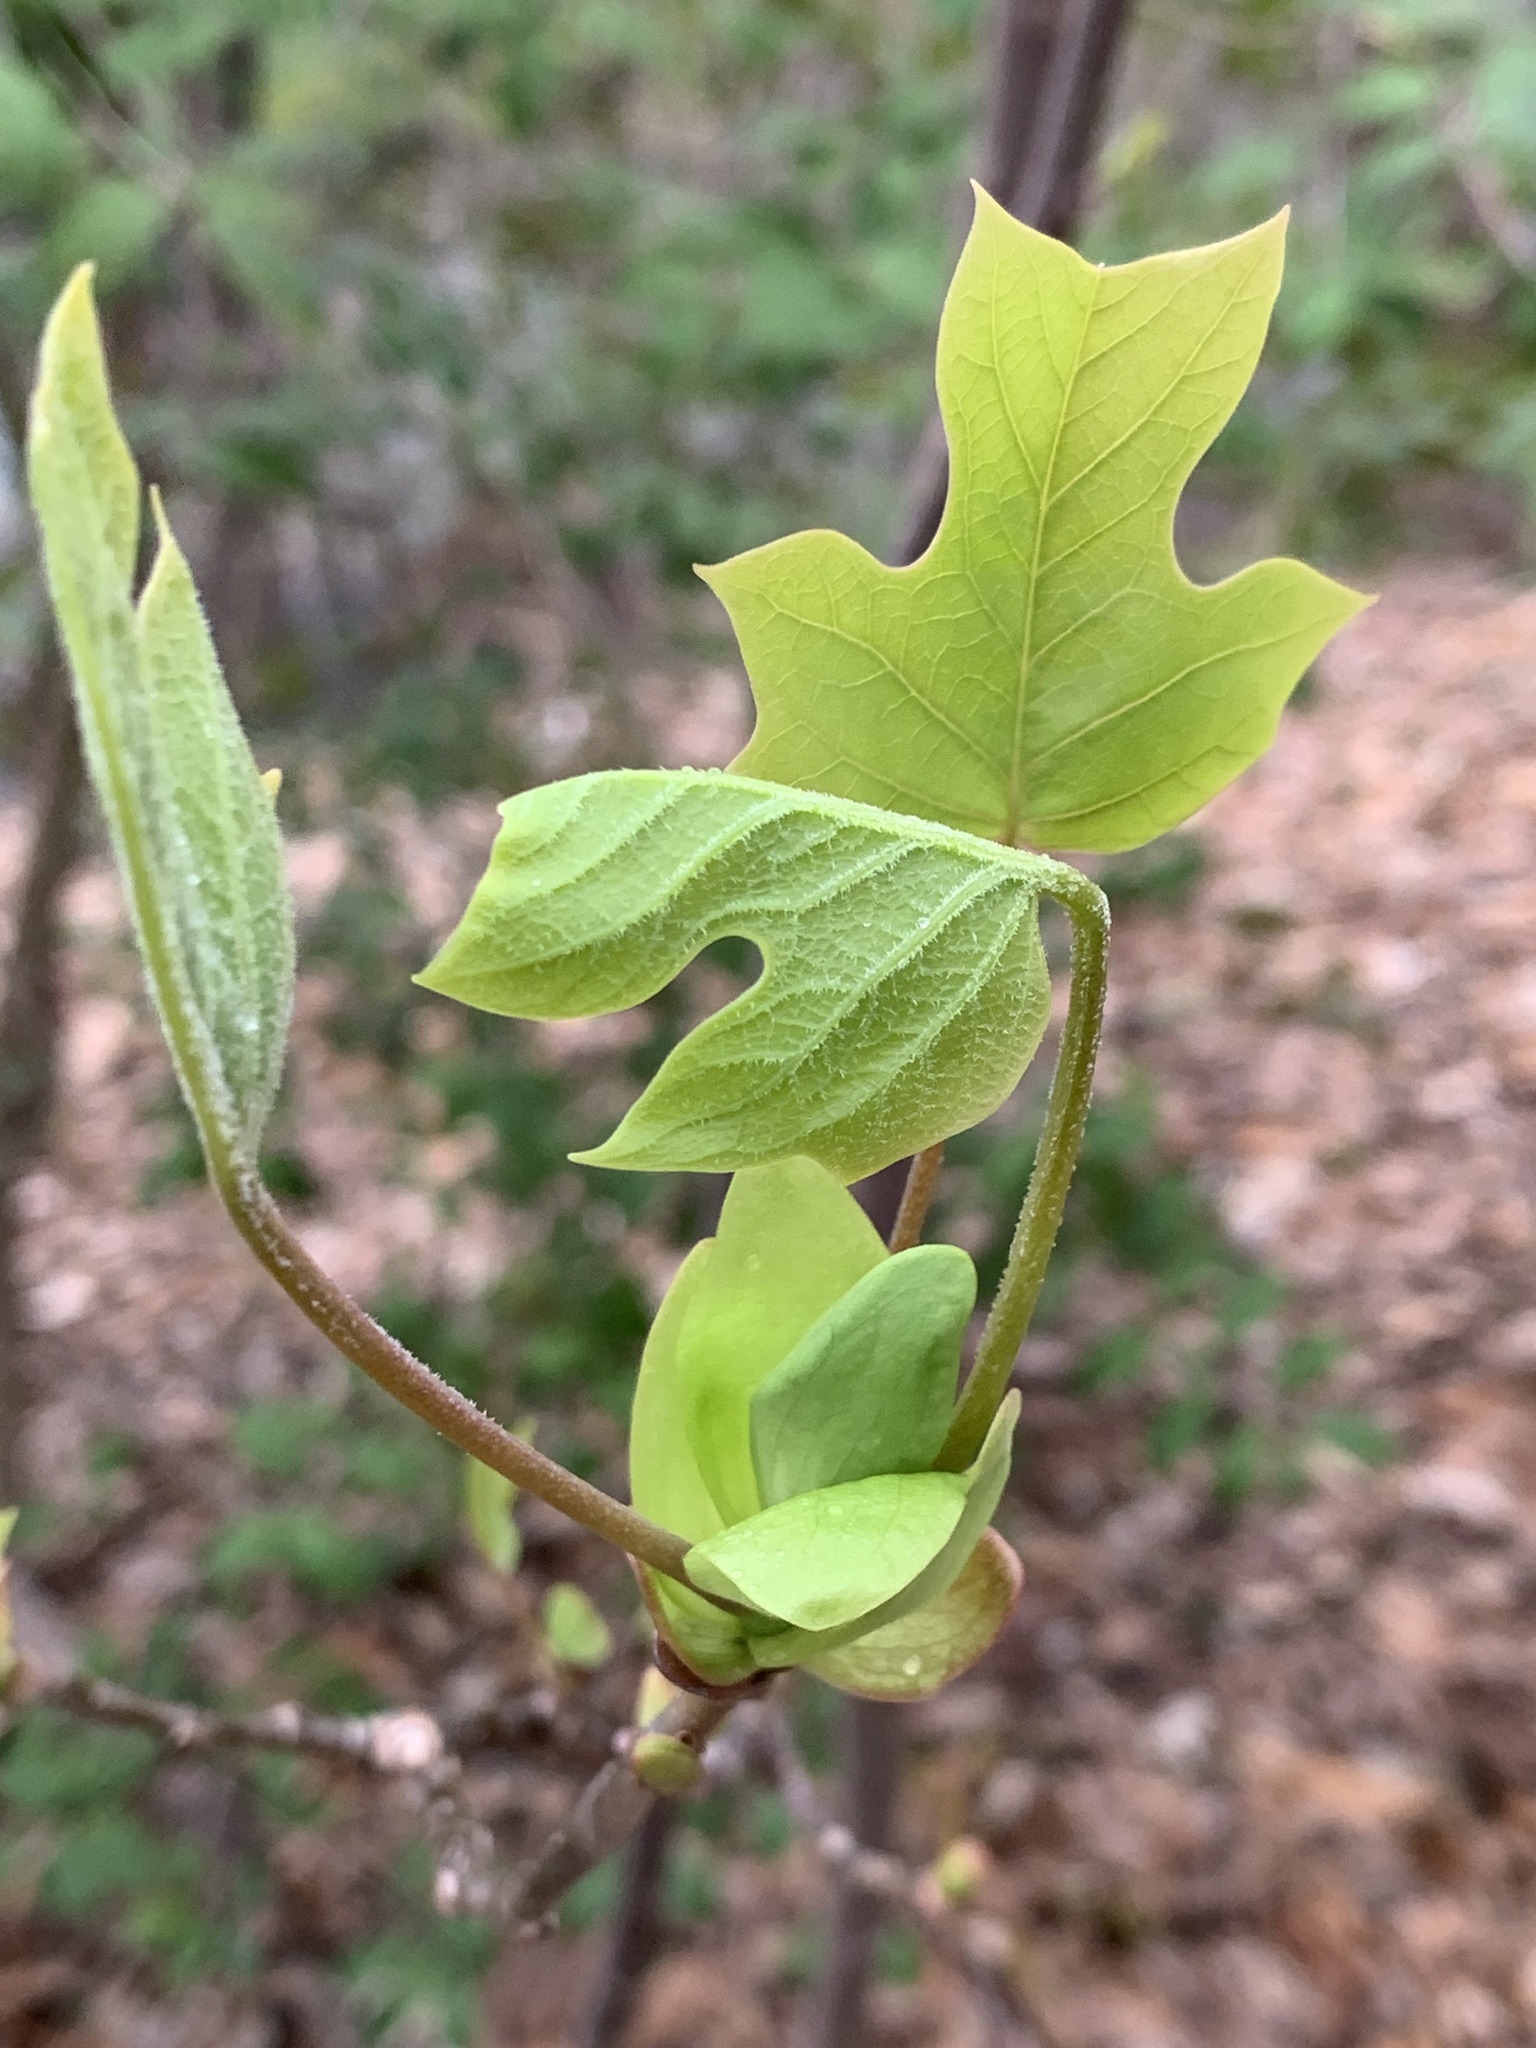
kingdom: Plantae
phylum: Tracheophyta
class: Magnoliopsida
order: Magnoliales
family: Magnoliaceae
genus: Liriodendron
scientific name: Liriodendron tulipifera
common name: Tulip tree
